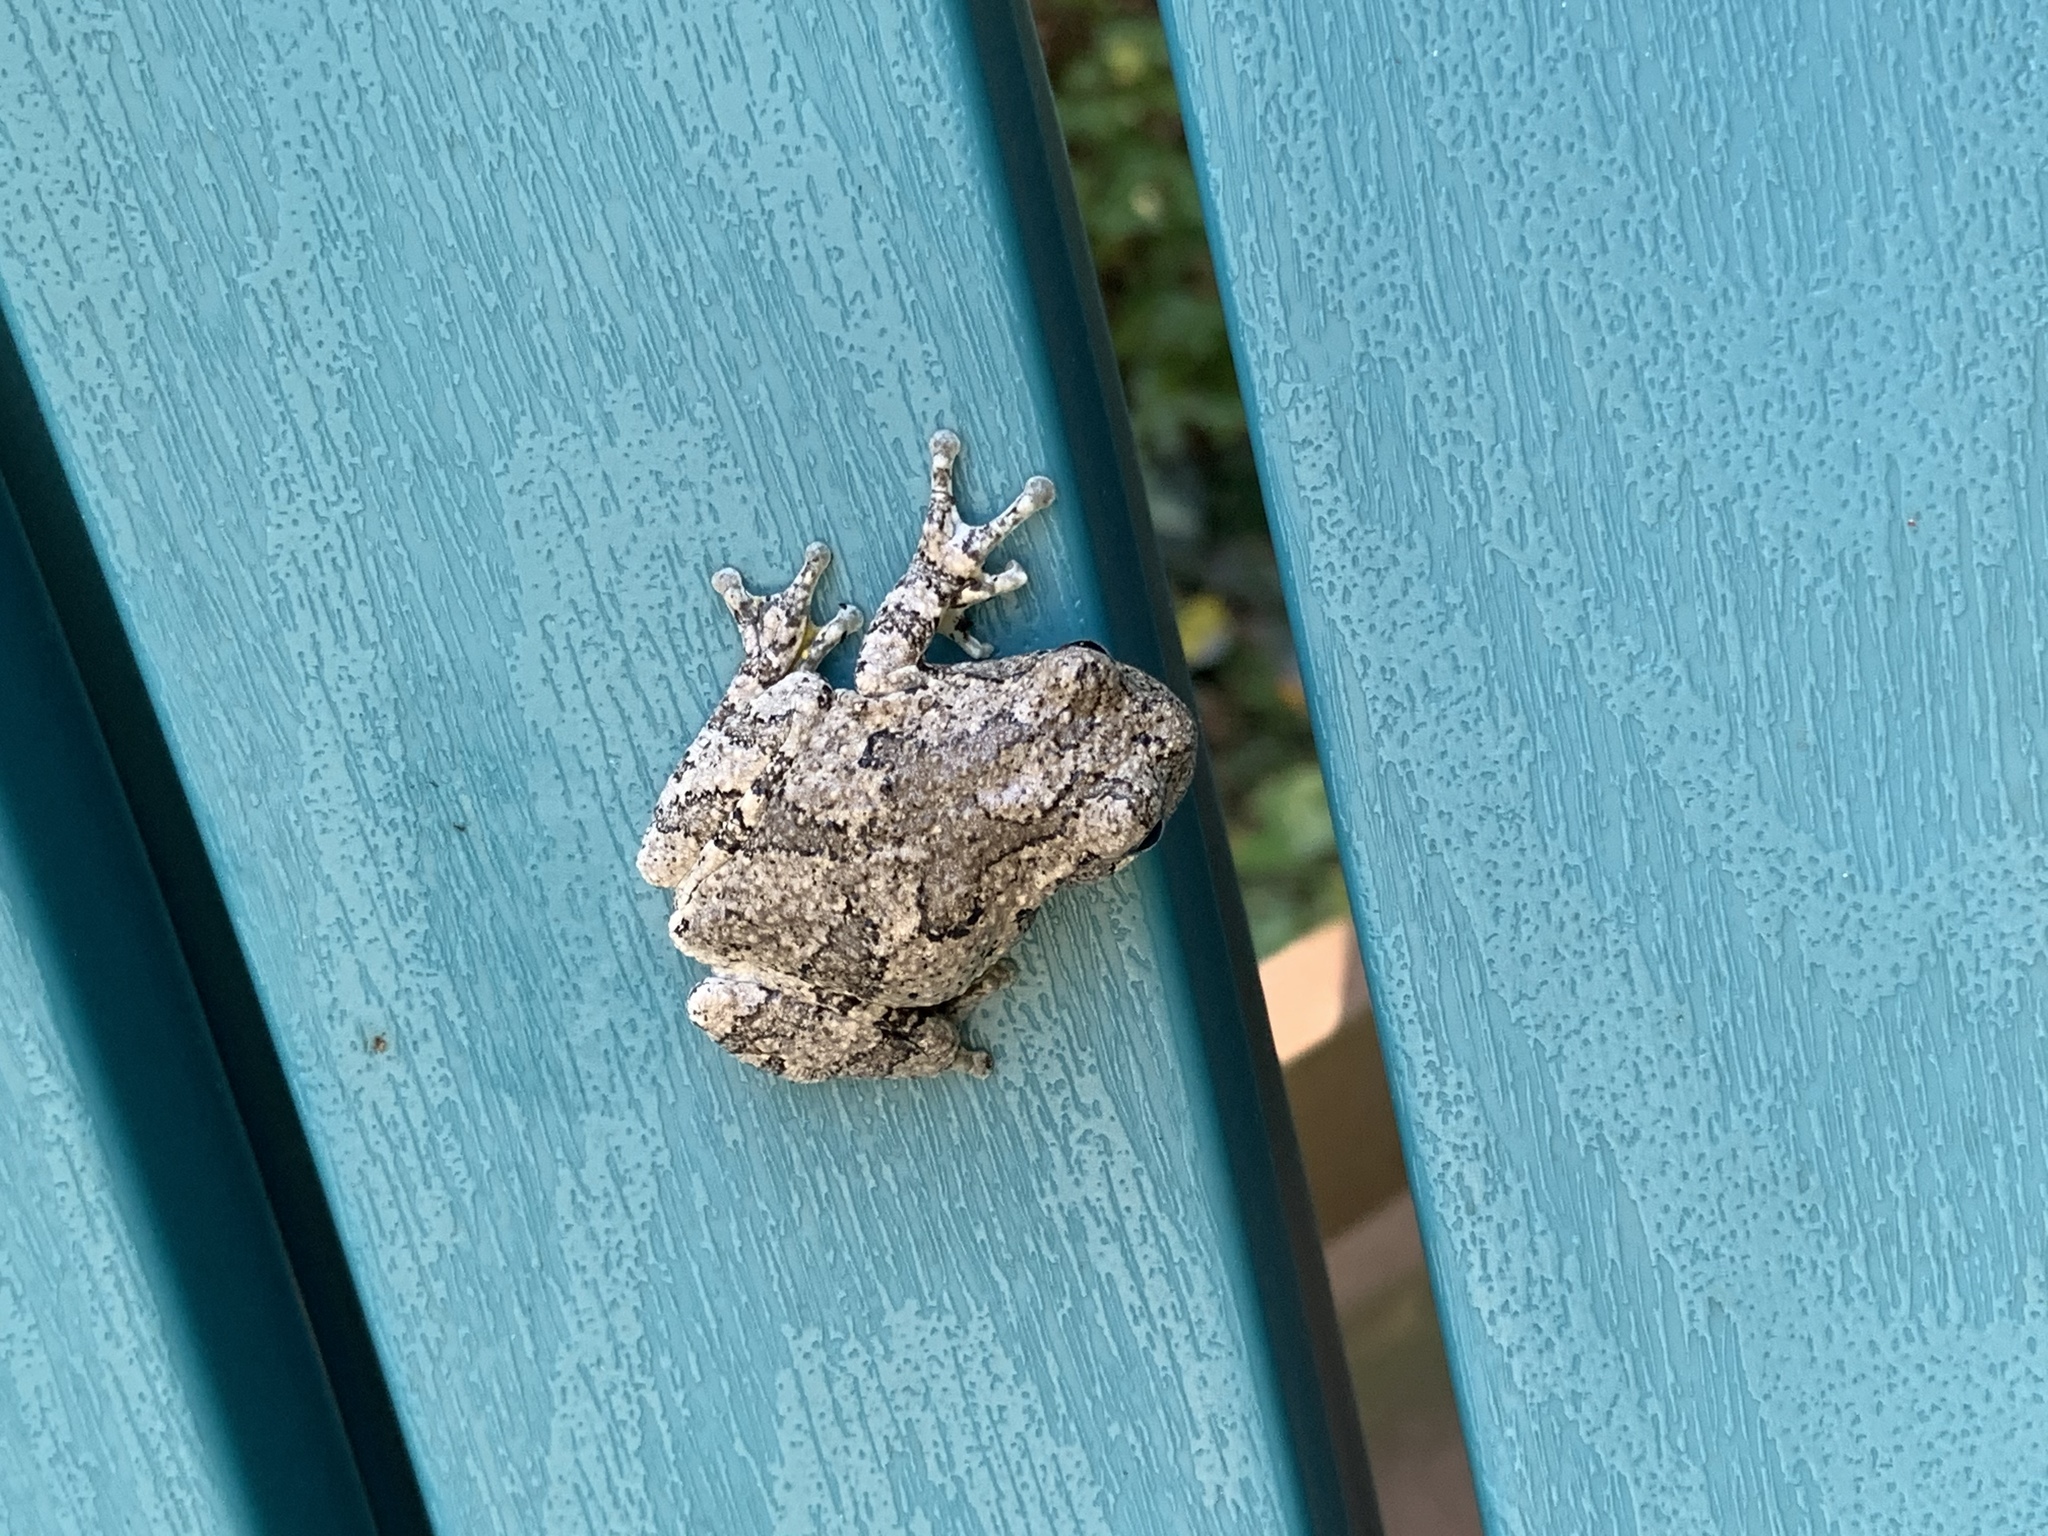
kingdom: Animalia
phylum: Chordata
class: Amphibia
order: Anura
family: Hylidae
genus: Dryophytes
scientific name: Dryophytes chrysoscelis
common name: Cope's gray treefrog
